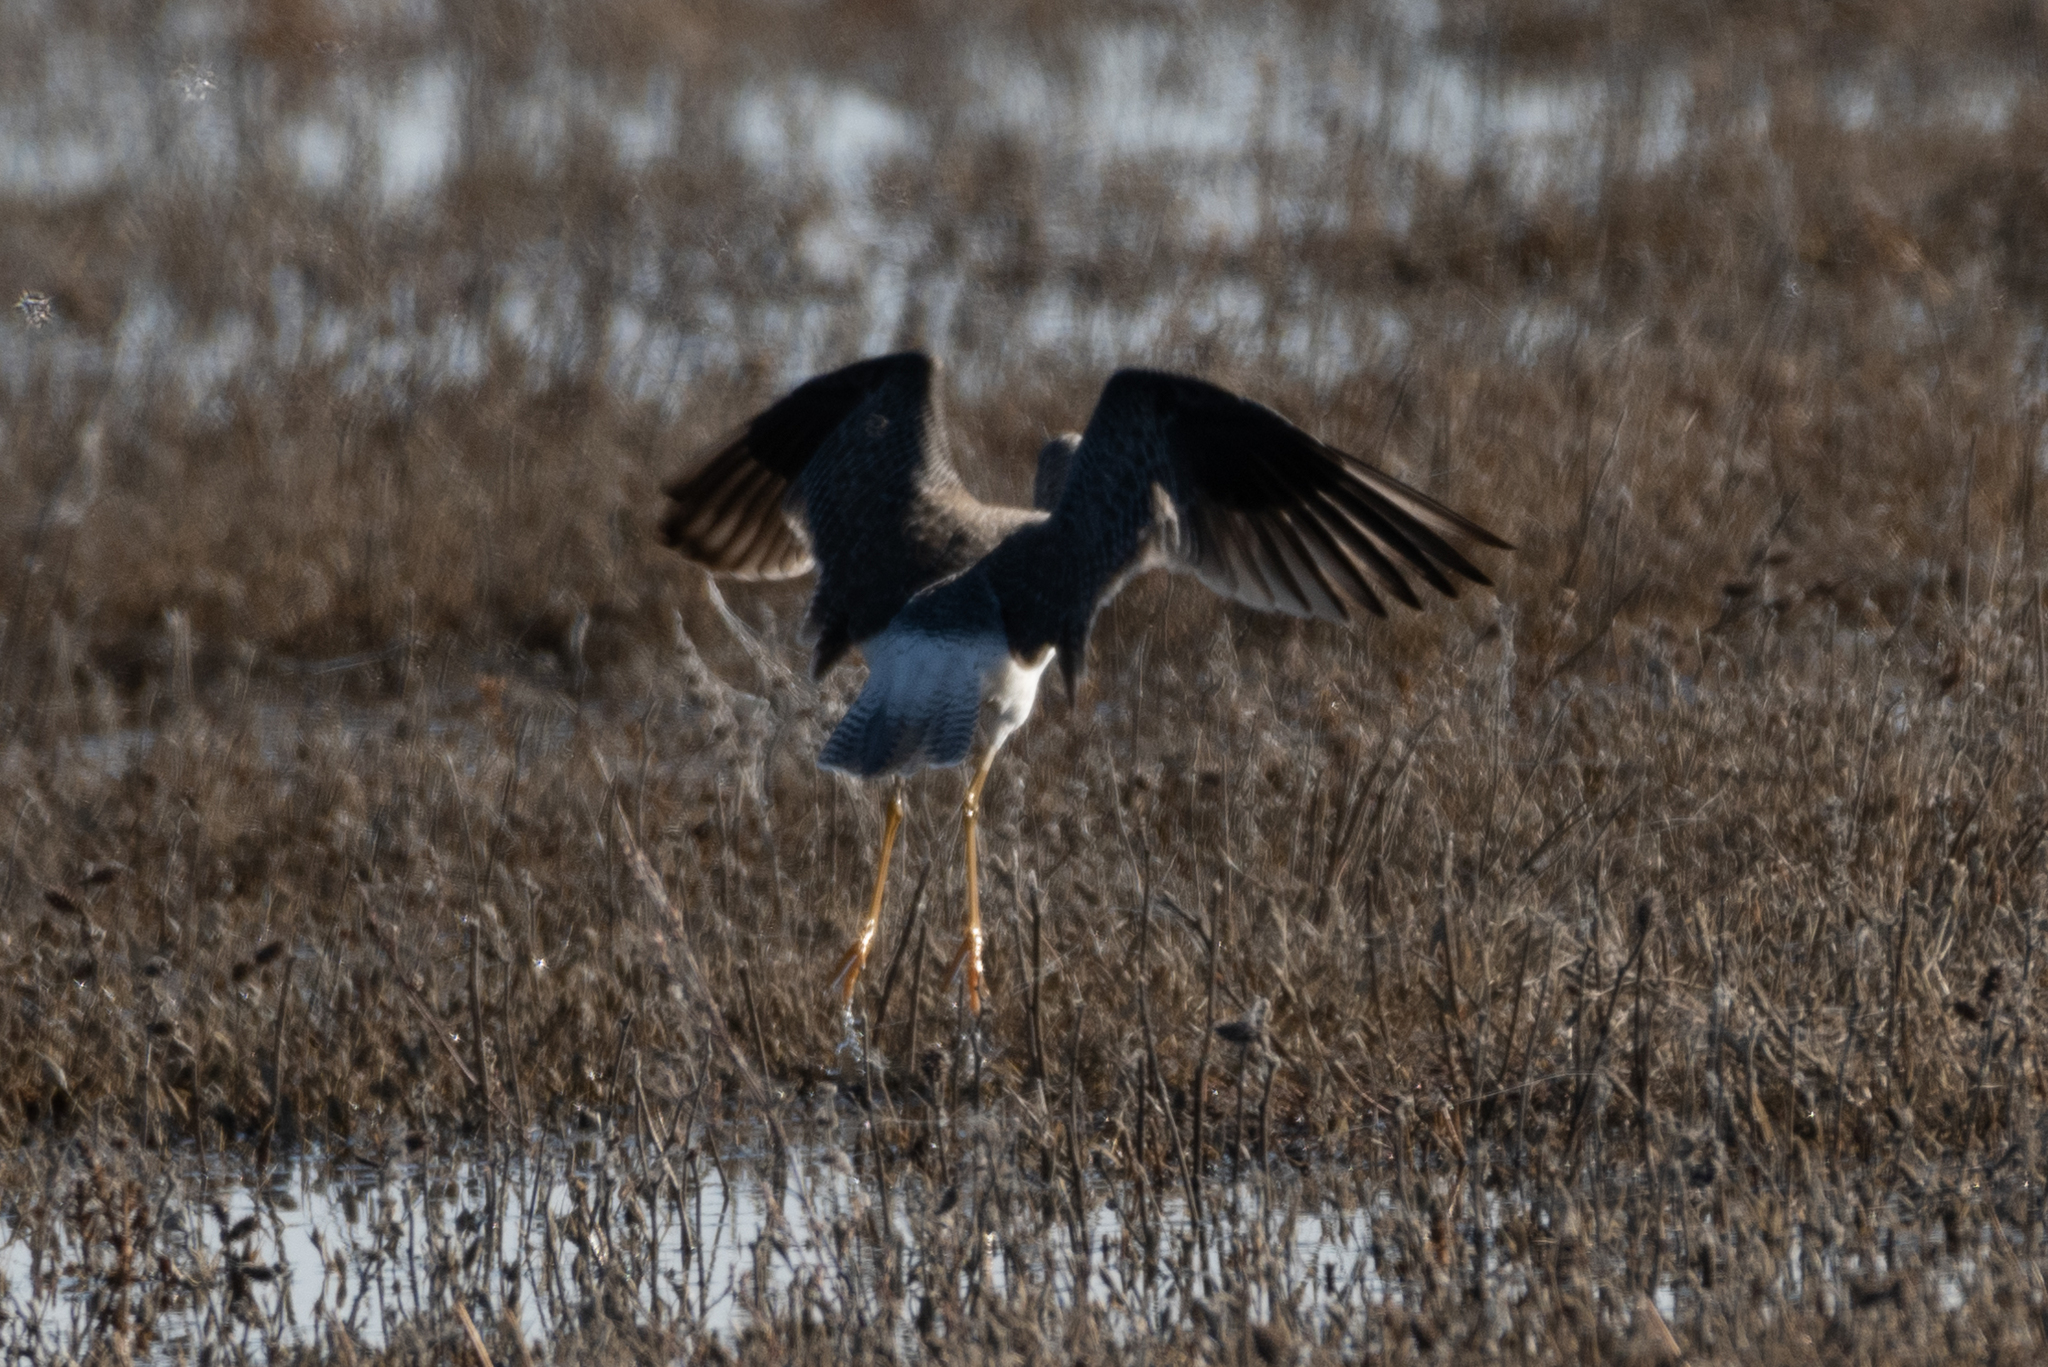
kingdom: Animalia
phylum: Chordata
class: Aves
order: Charadriiformes
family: Scolopacidae
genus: Tringa
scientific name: Tringa melanoleuca
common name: Greater yellowlegs
